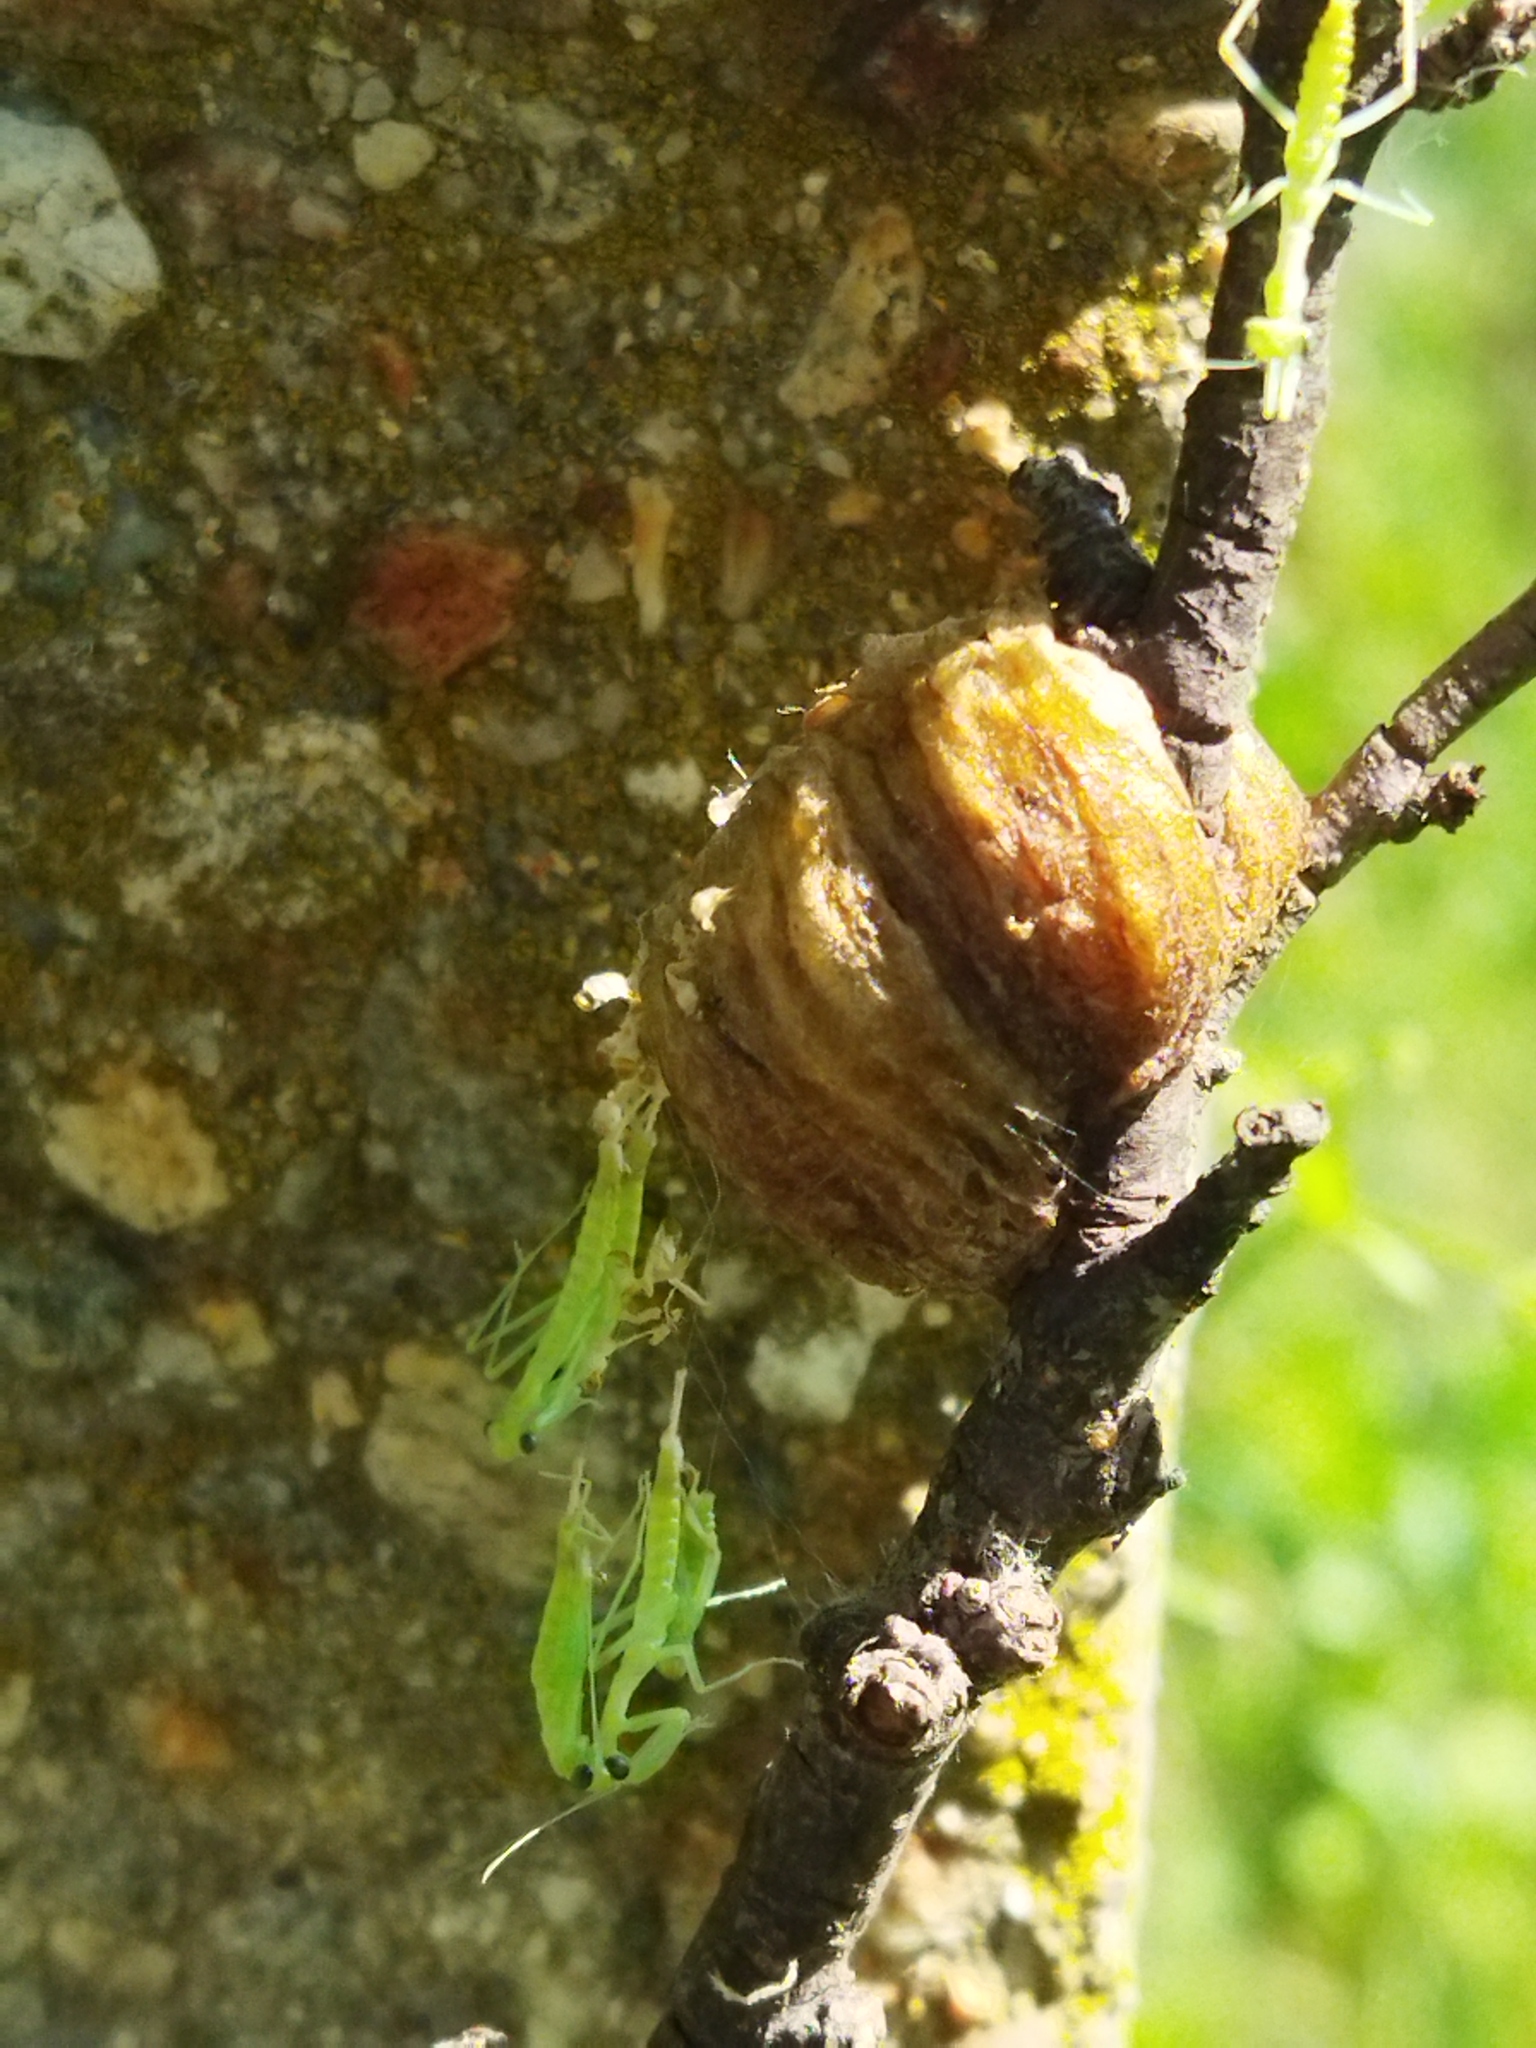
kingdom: Animalia
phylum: Arthropoda
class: Insecta
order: Mantodea
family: Mantidae
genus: Hierodula
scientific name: Hierodula transcaucasica
